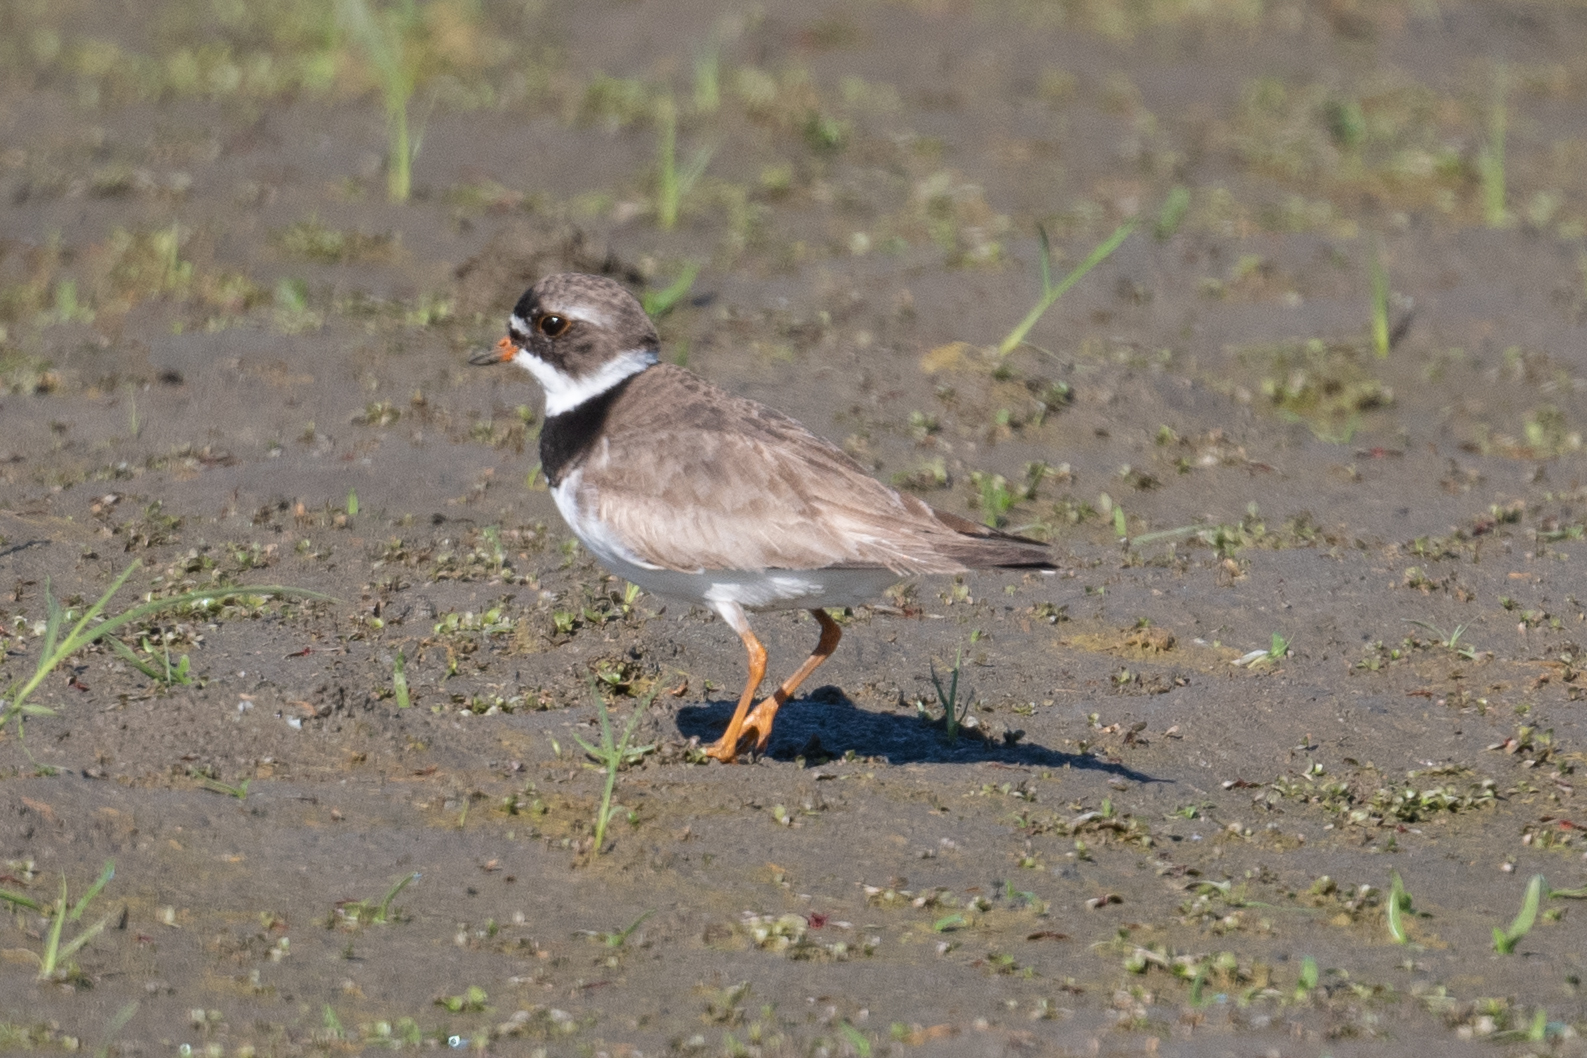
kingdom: Animalia
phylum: Chordata
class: Aves
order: Charadriiformes
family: Charadriidae
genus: Charadrius
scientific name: Charadrius semipalmatus
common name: Semipalmated plover
